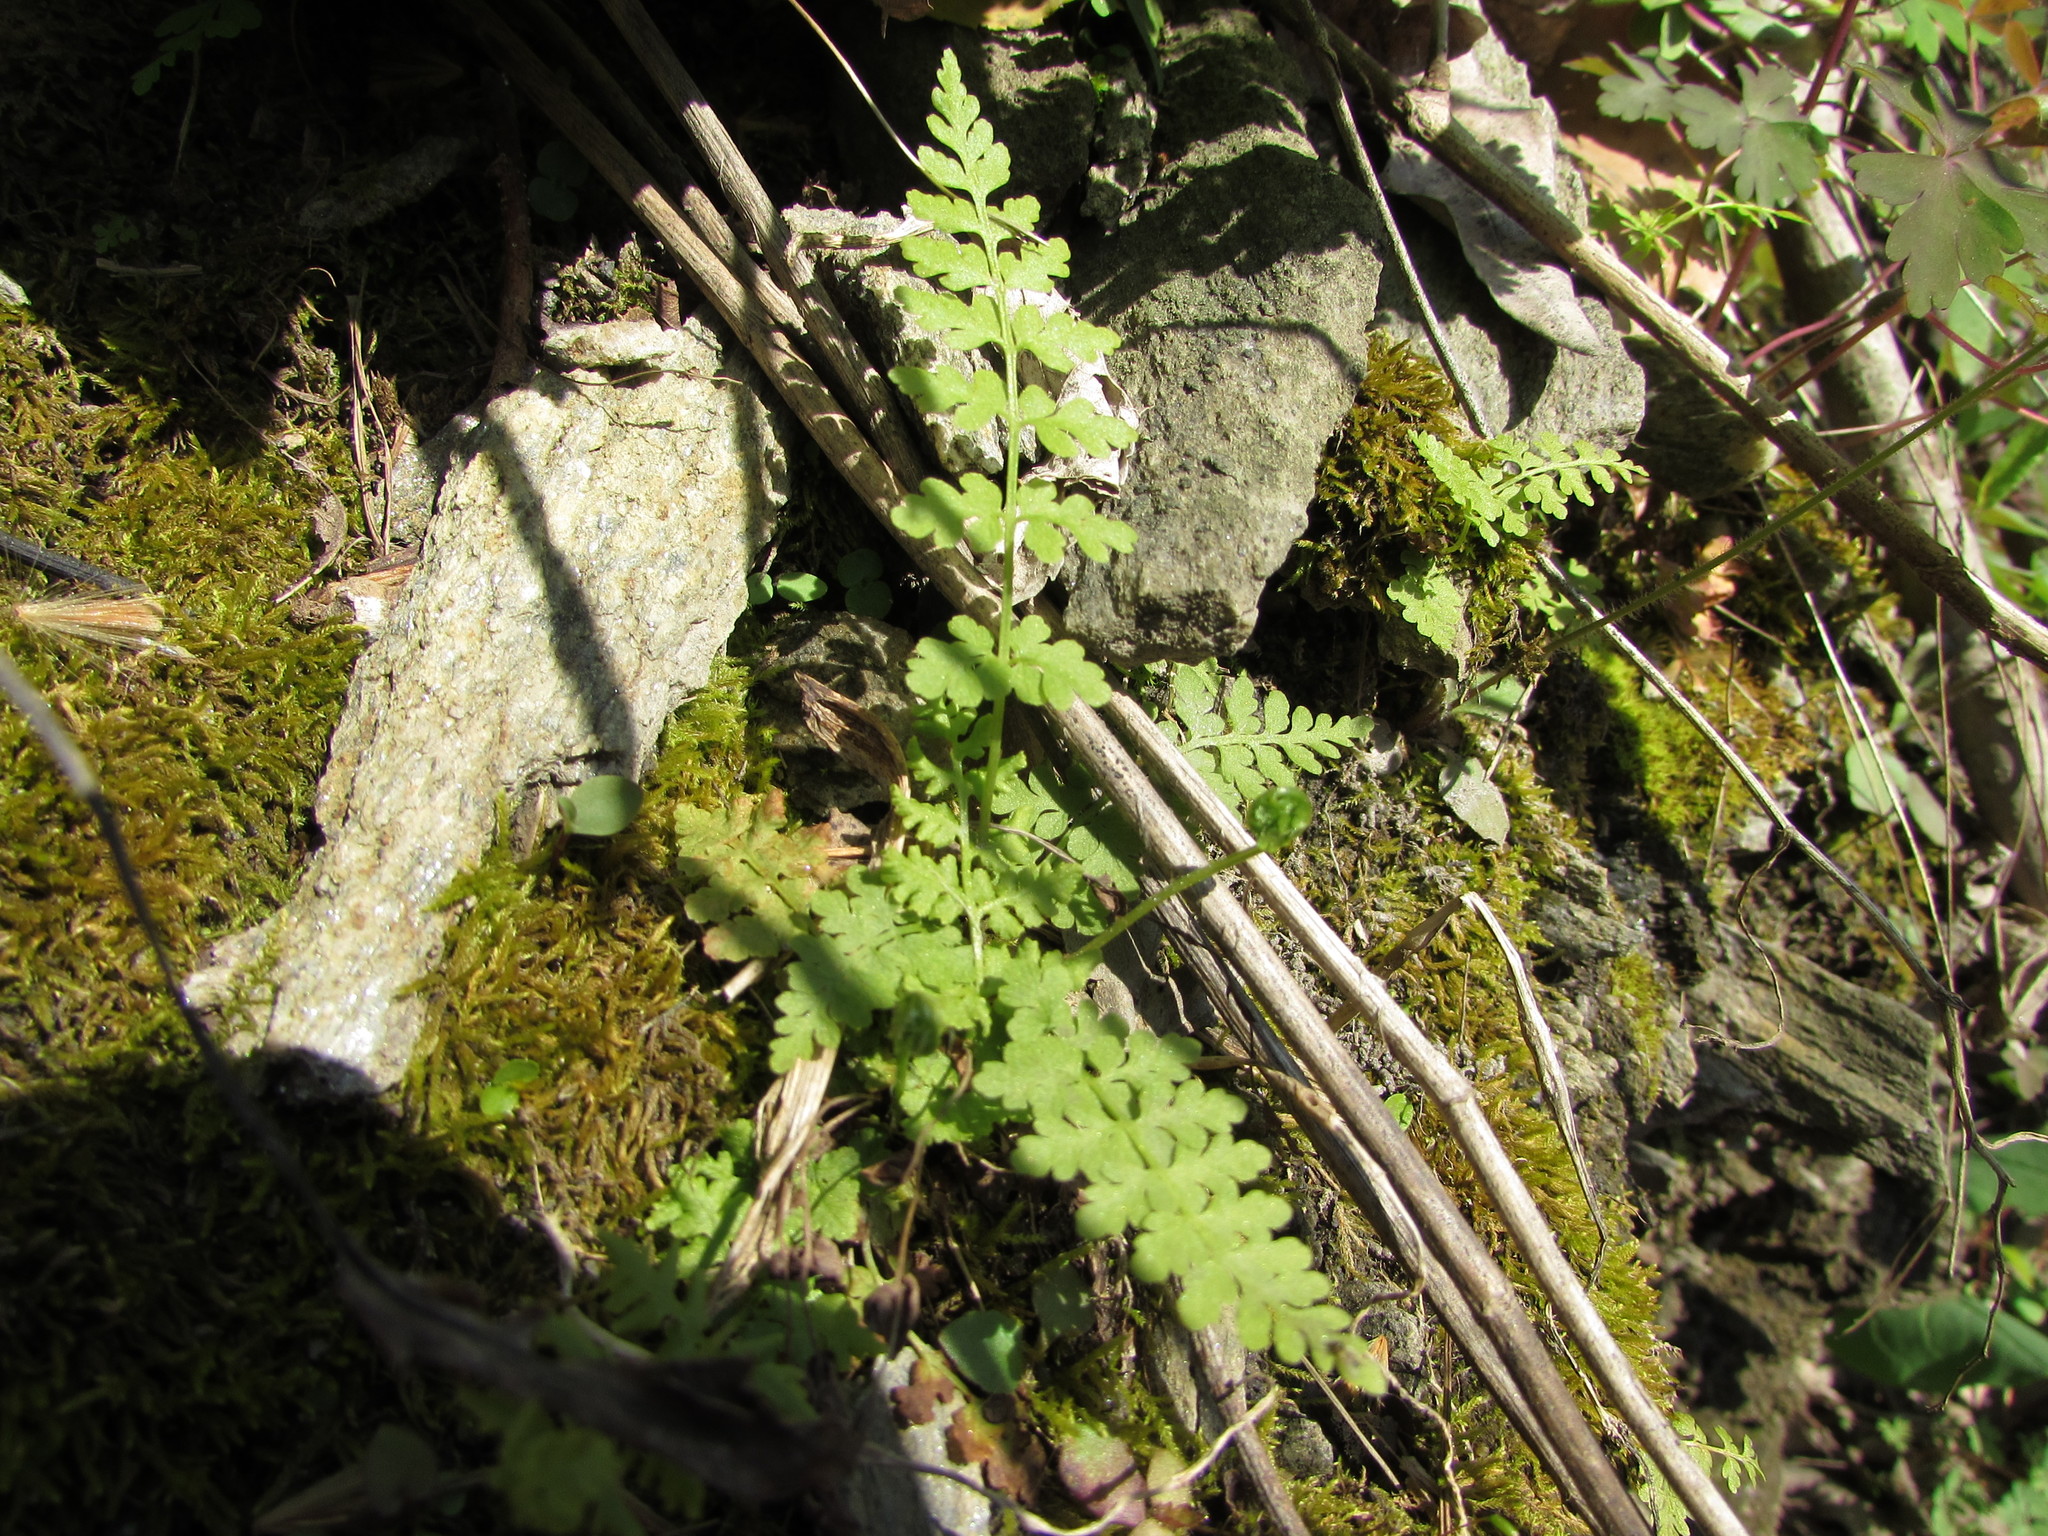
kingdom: Plantae
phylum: Tracheophyta
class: Polypodiopsida
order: Polypodiales
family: Cystopteridaceae
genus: Cystopteris
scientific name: Cystopteris tenuis
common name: Mackay's brittle fern
